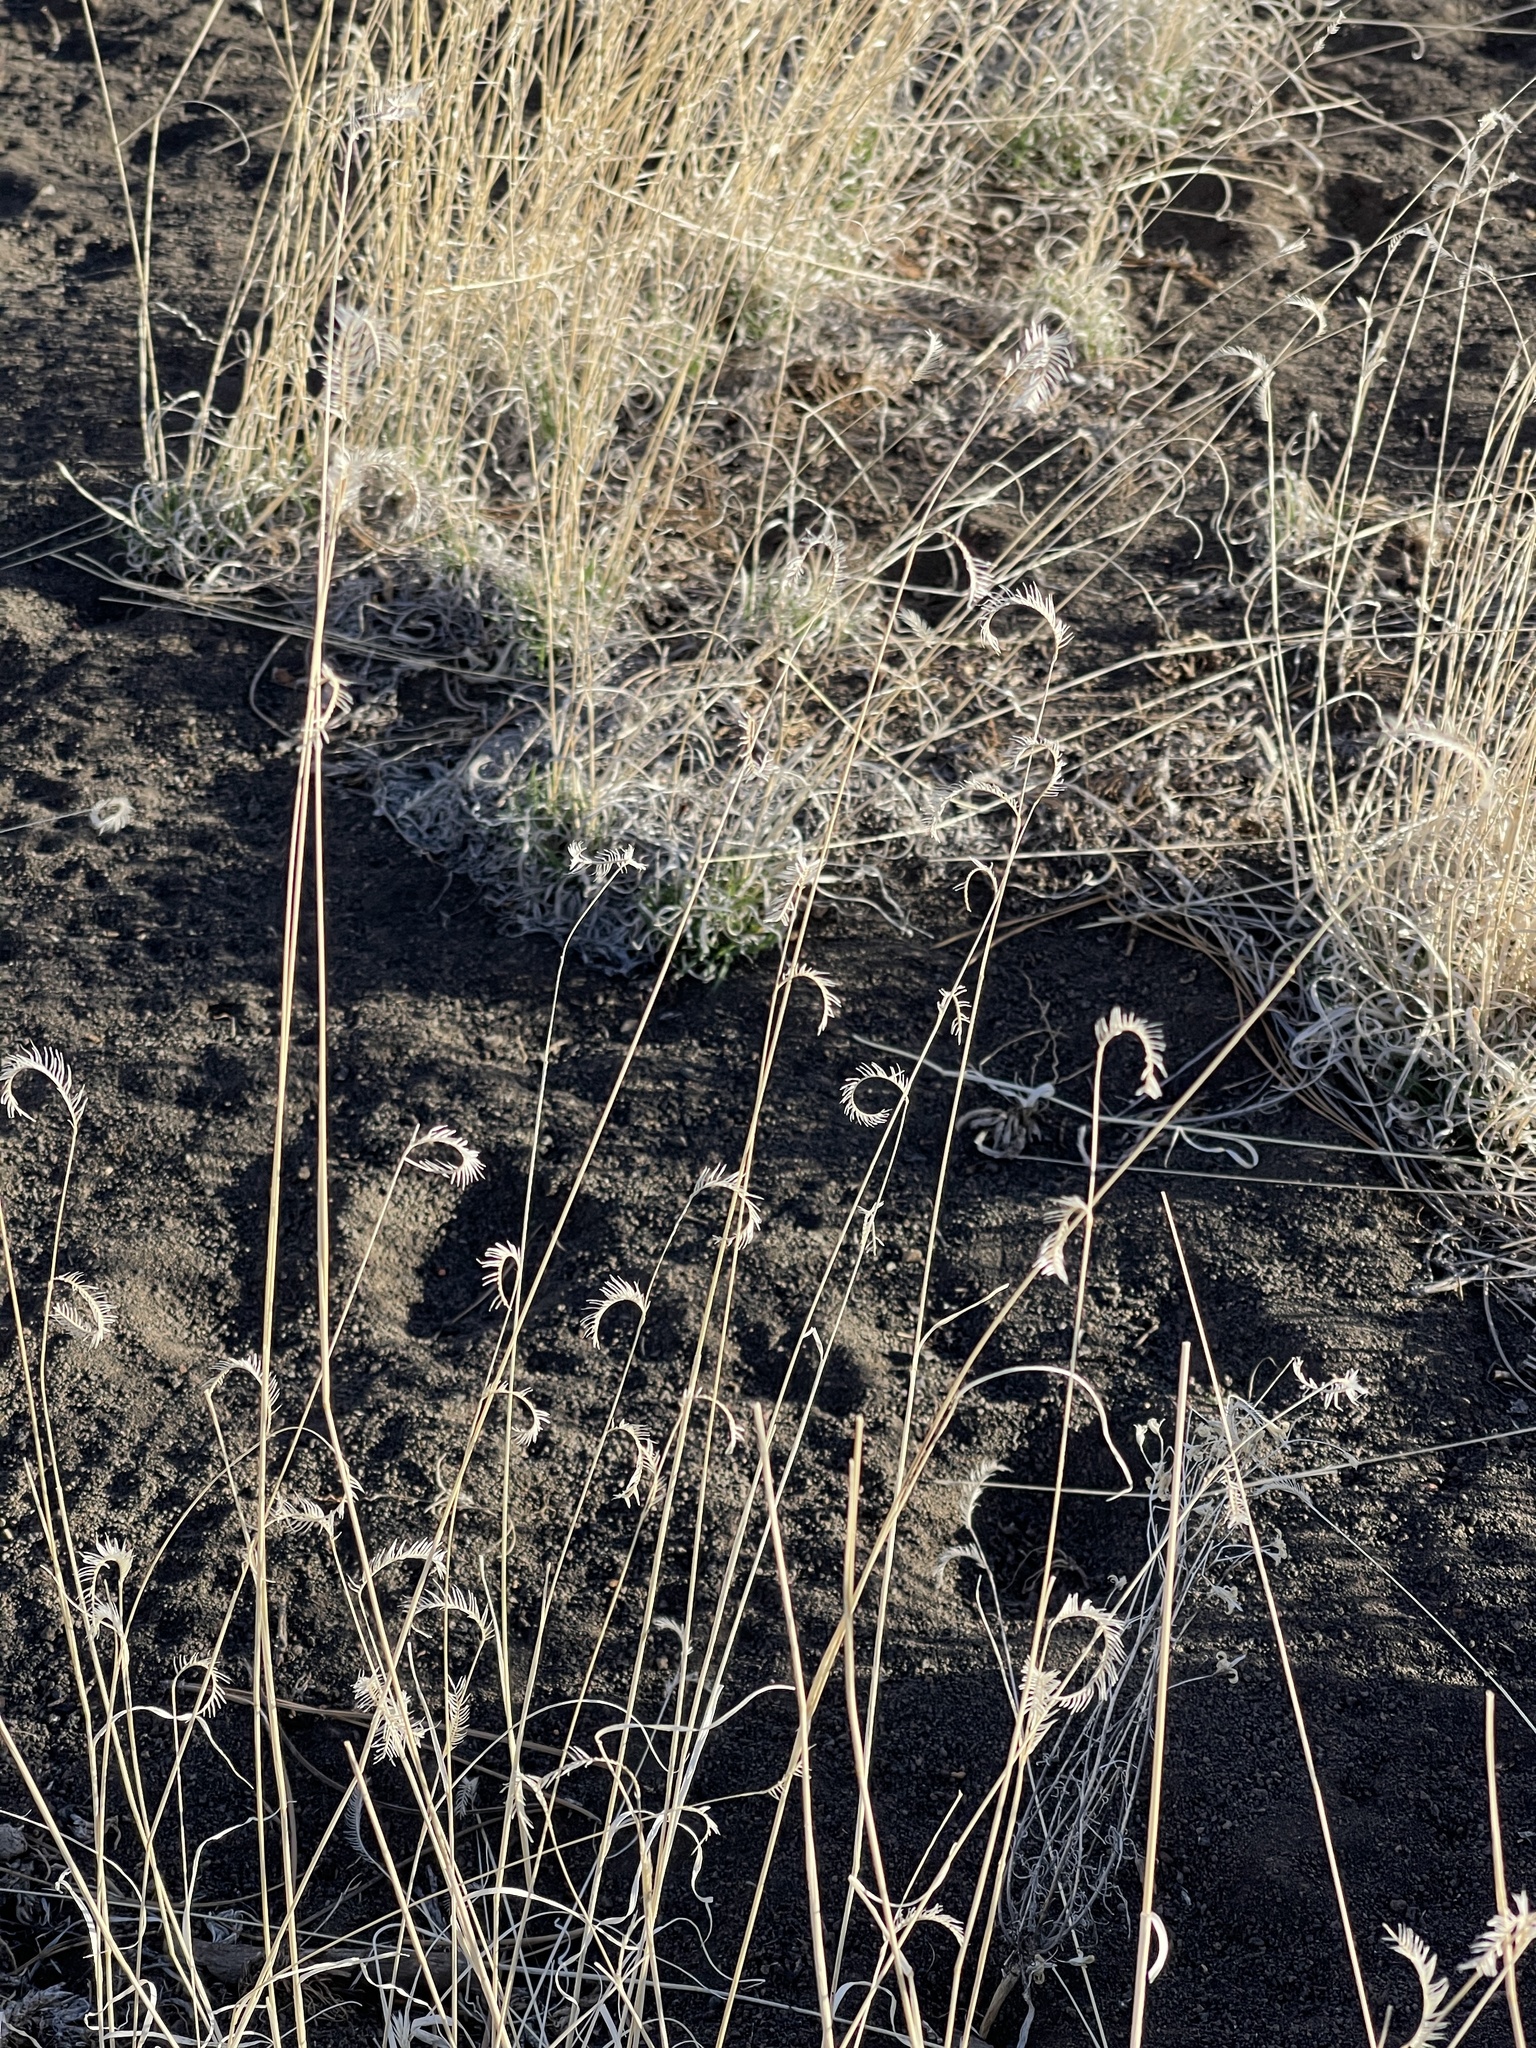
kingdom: Plantae
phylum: Tracheophyta
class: Liliopsida
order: Poales
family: Poaceae
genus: Bouteloua
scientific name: Bouteloua gracilis
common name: Blue grama
